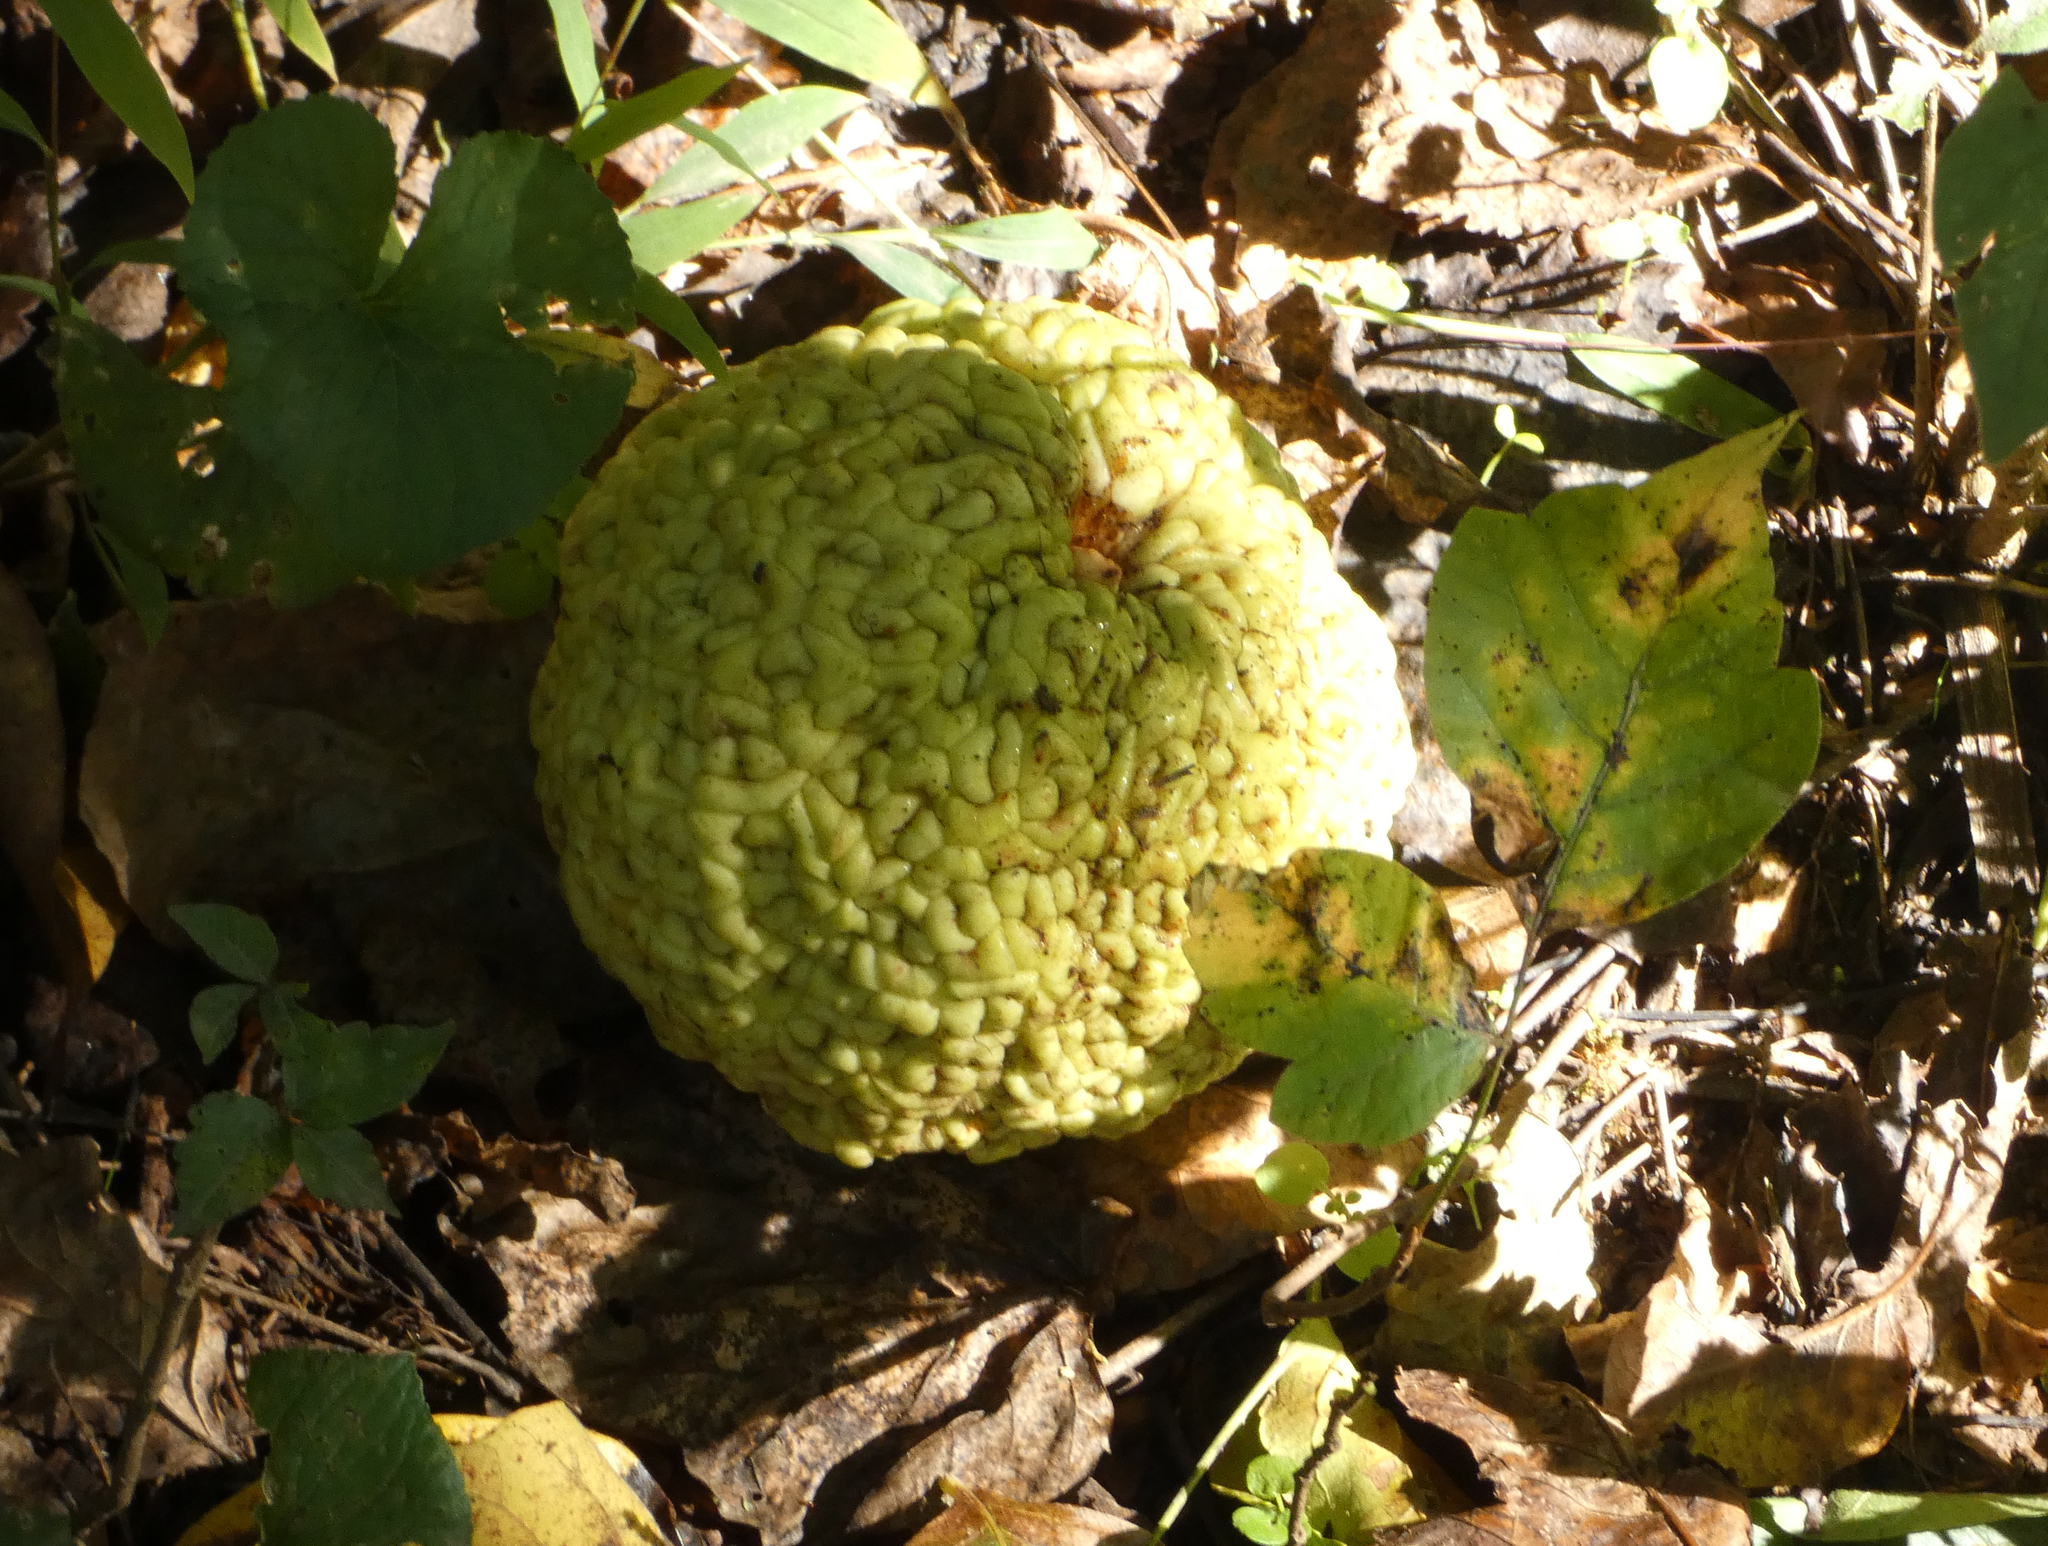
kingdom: Plantae
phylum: Tracheophyta
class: Magnoliopsida
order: Rosales
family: Moraceae
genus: Maclura
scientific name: Maclura pomifera
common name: Osage-orange
